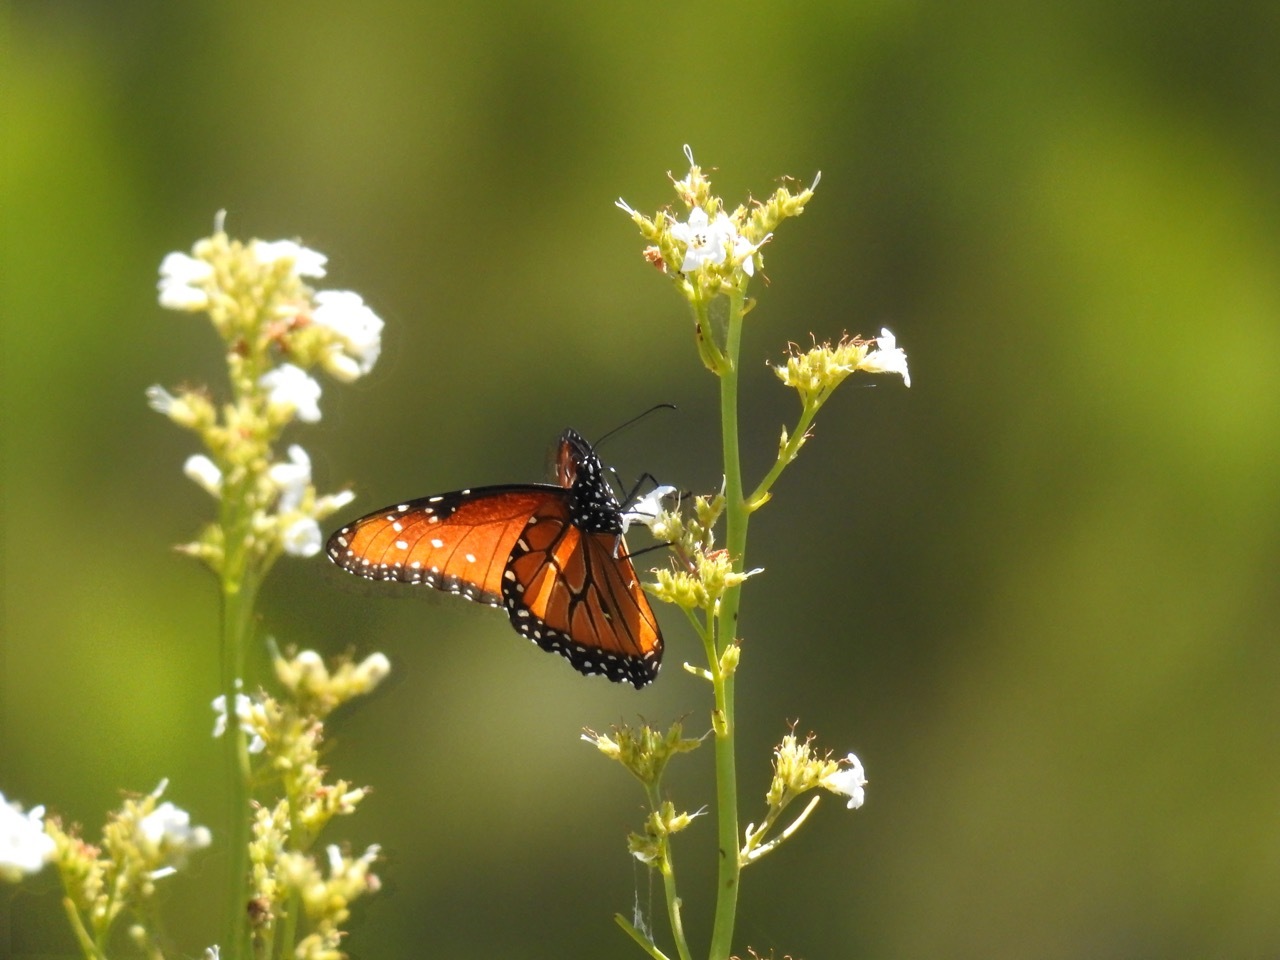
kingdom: Animalia
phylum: Arthropoda
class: Insecta
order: Lepidoptera
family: Nymphalidae
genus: Danaus
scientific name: Danaus gilippus
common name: Queen
